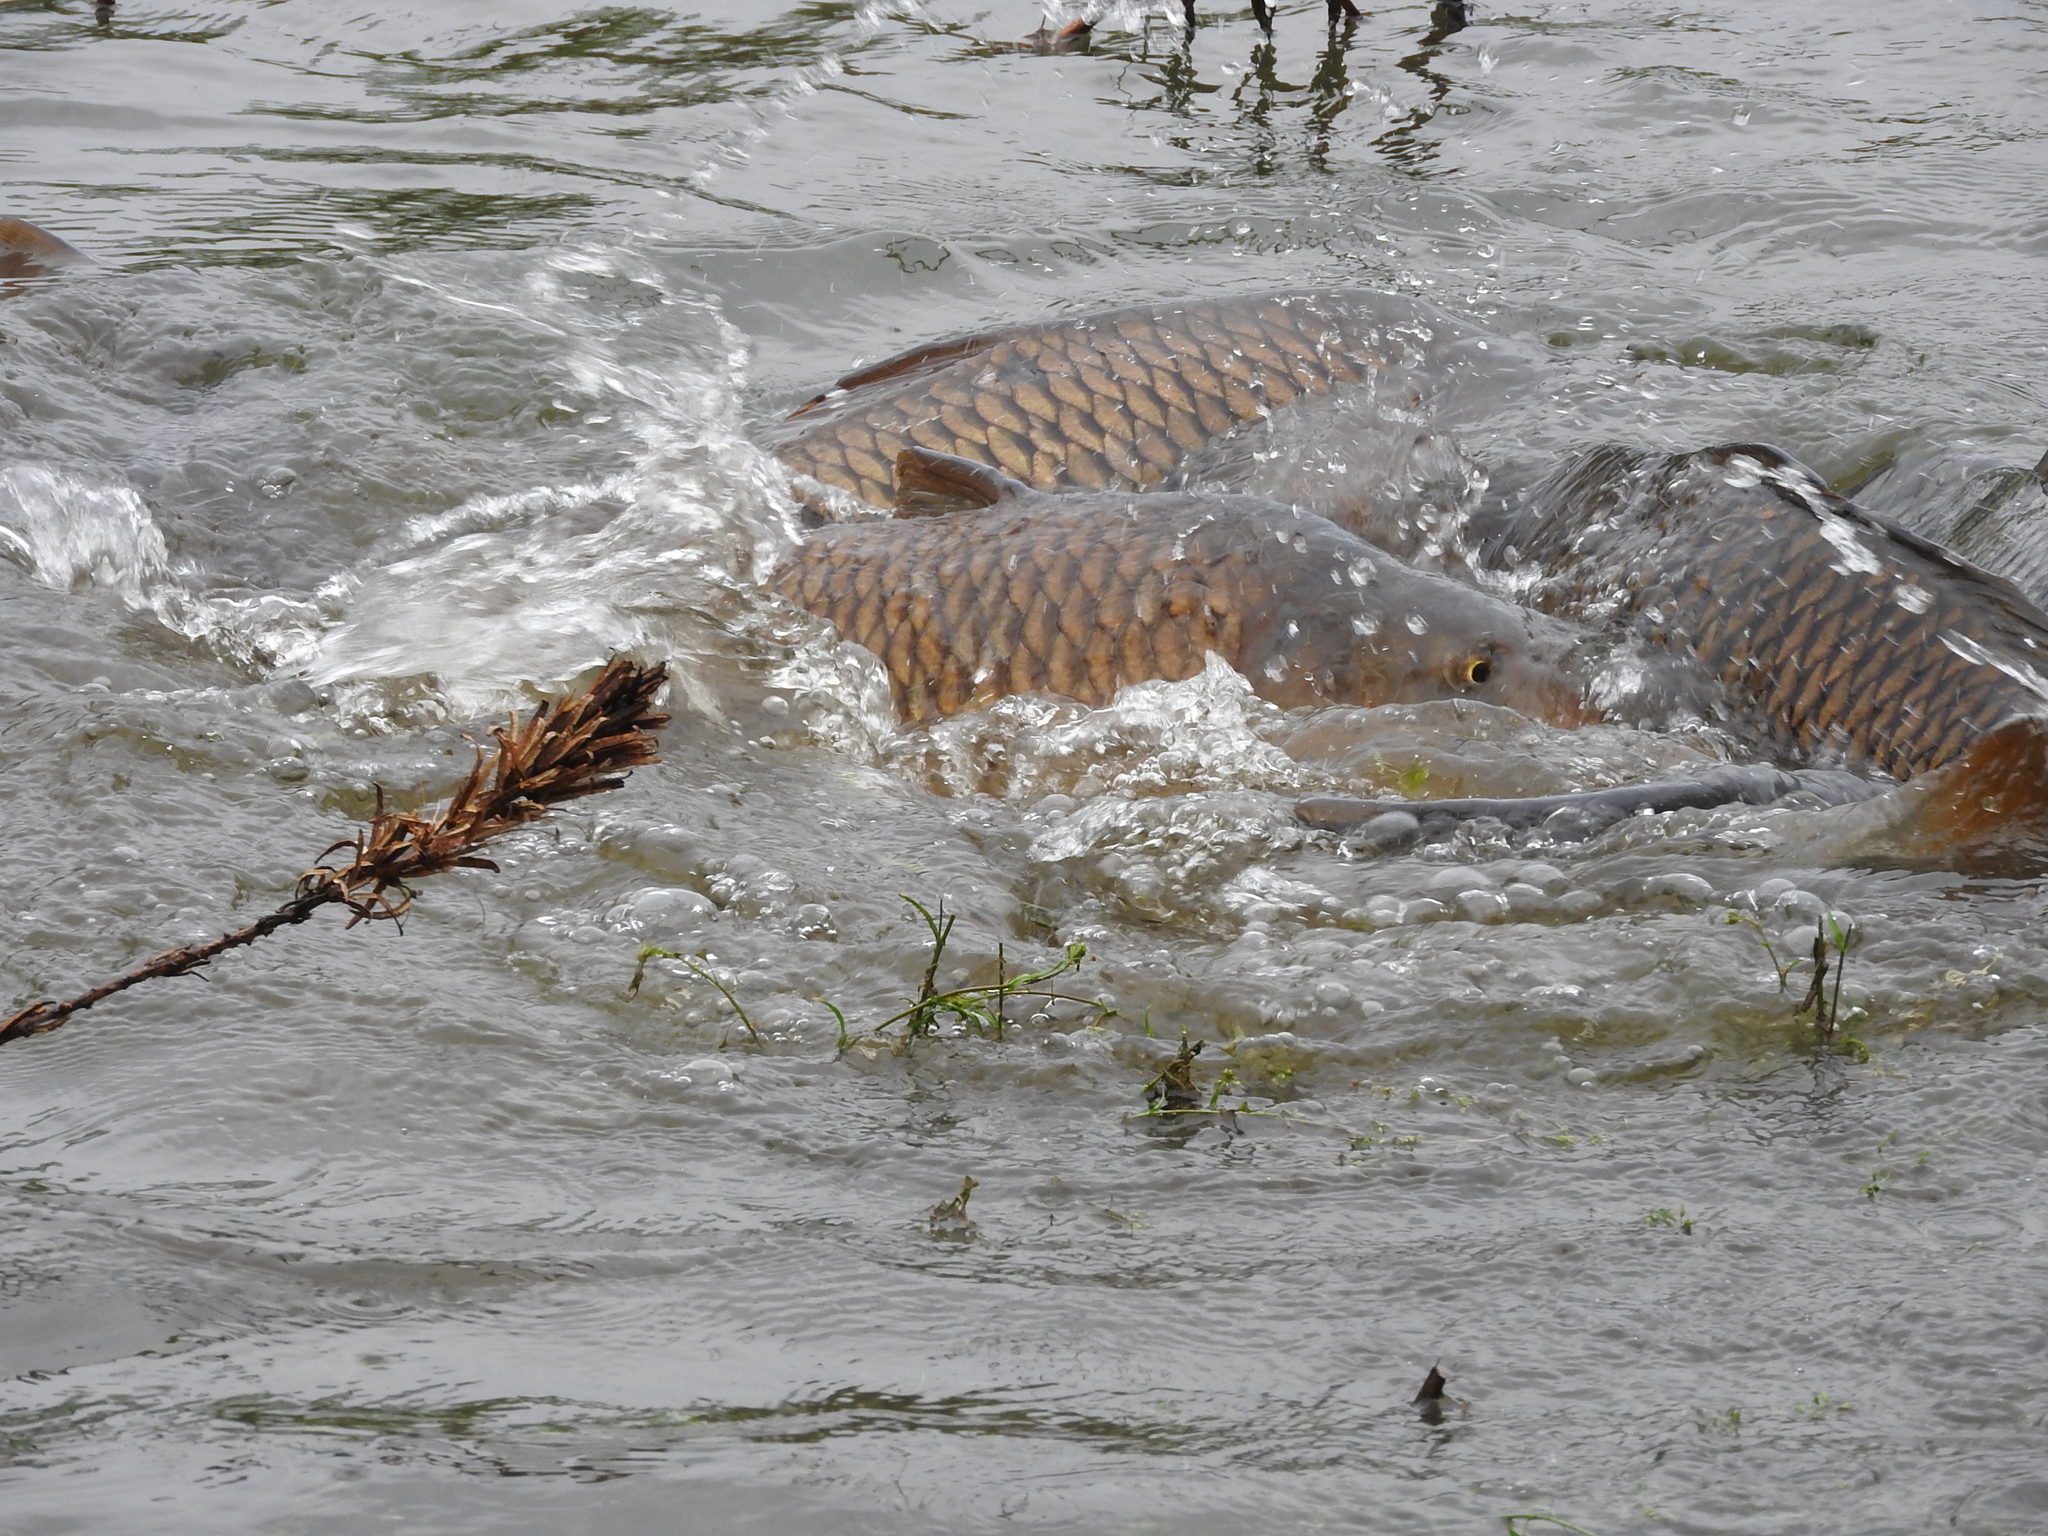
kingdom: Animalia
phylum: Chordata
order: Cypriniformes
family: Cyprinidae
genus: Cyprinus
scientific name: Cyprinus carpio
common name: Common carp
